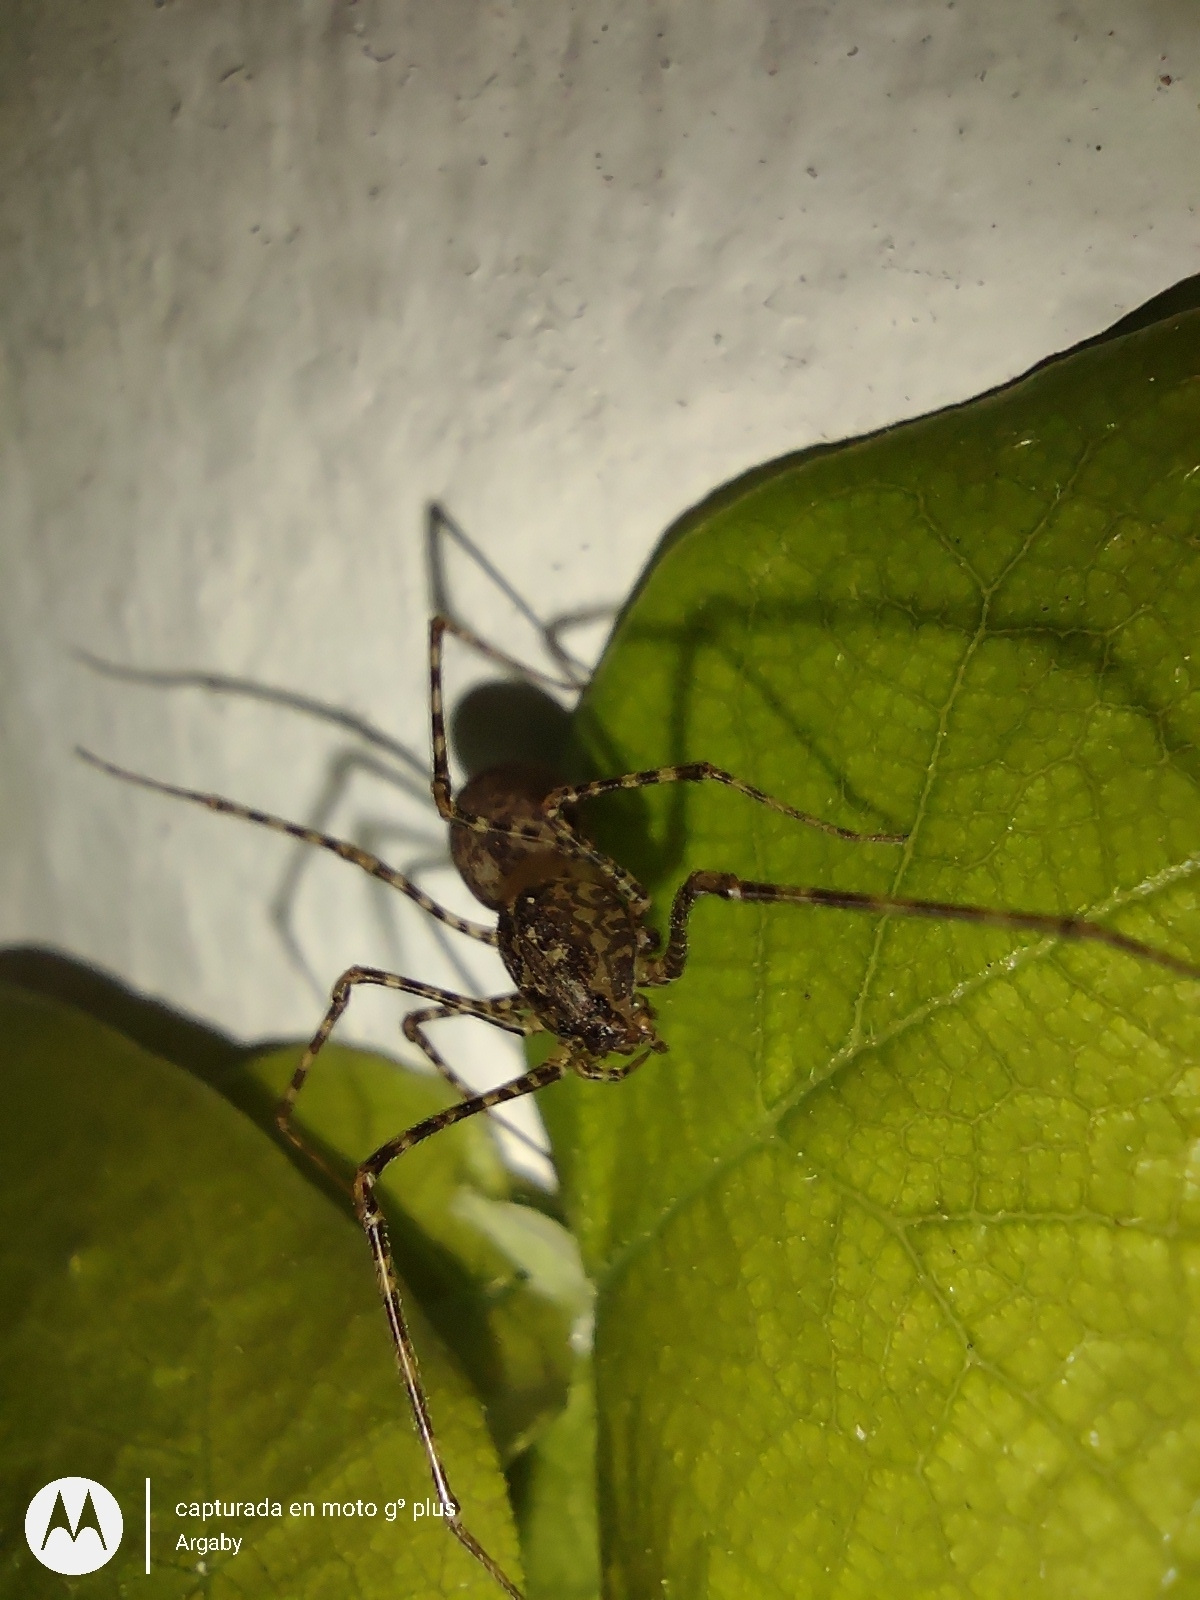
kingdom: Animalia
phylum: Arthropoda
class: Arachnida
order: Araneae
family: Scytodidae
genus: Scytodes
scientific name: Scytodes globula
